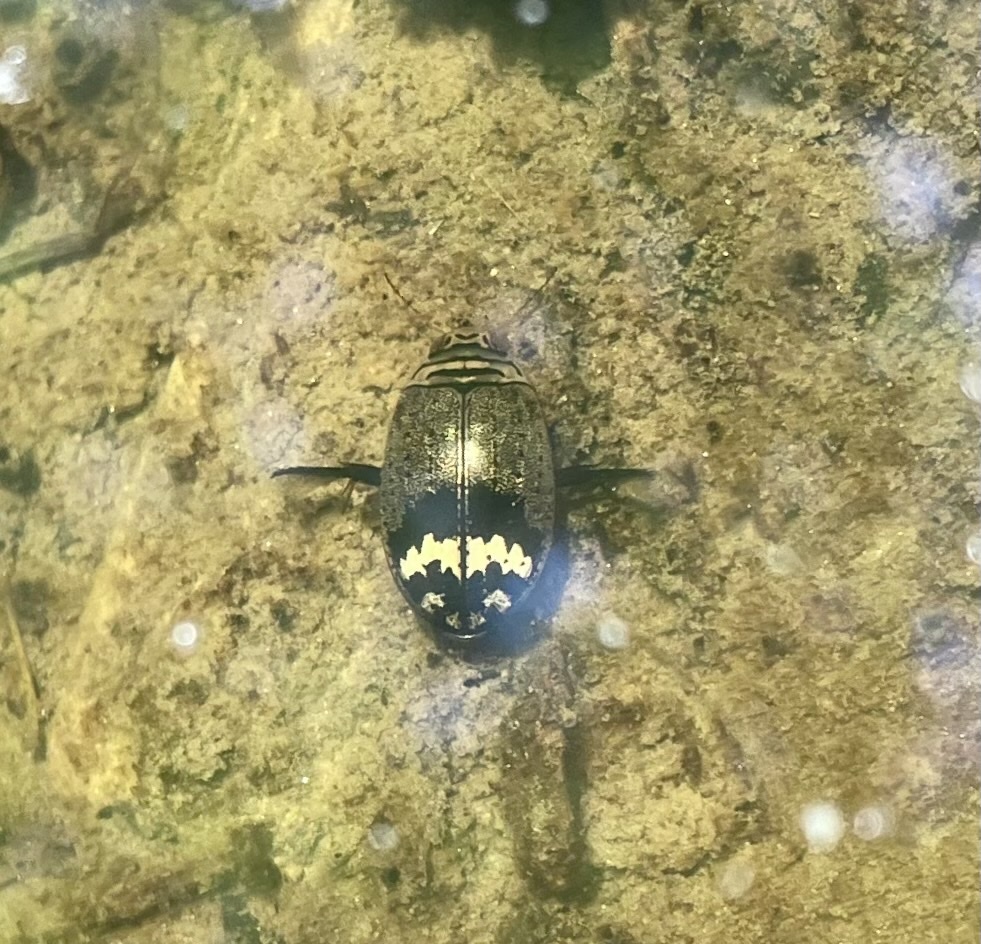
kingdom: Animalia
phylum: Arthropoda
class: Insecta
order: Coleoptera
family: Dytiscidae
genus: Acilius
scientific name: Acilius mediatus
